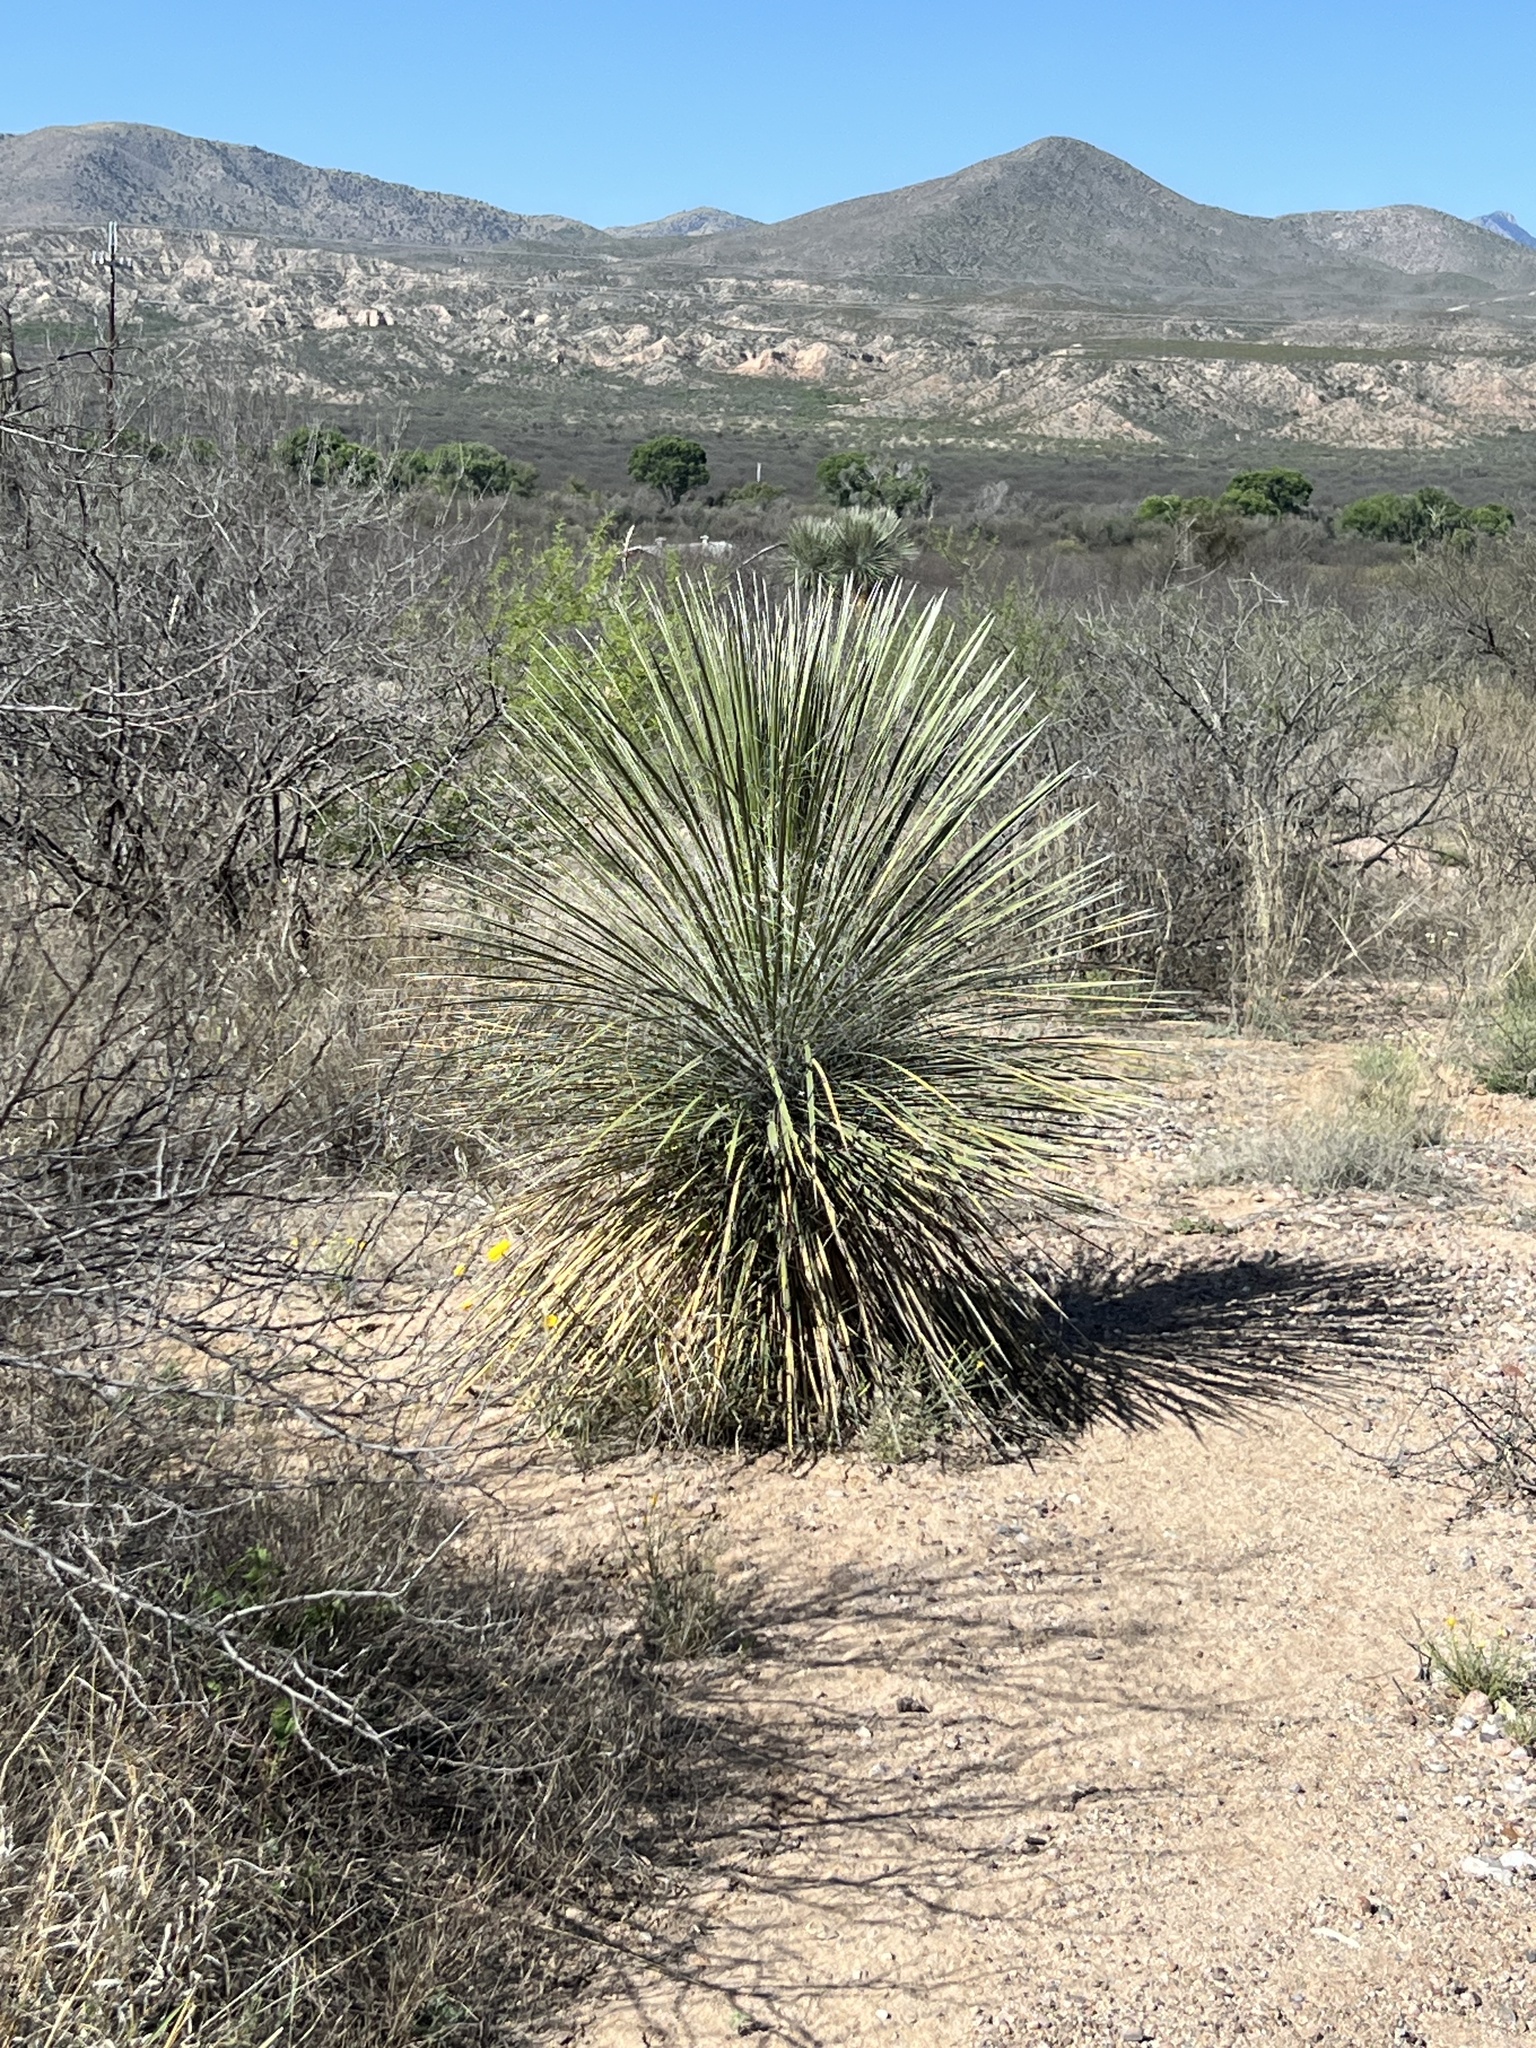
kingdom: Plantae
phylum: Tracheophyta
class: Liliopsida
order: Asparagales
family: Asparagaceae
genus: Yucca
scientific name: Yucca elata
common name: Palmella
